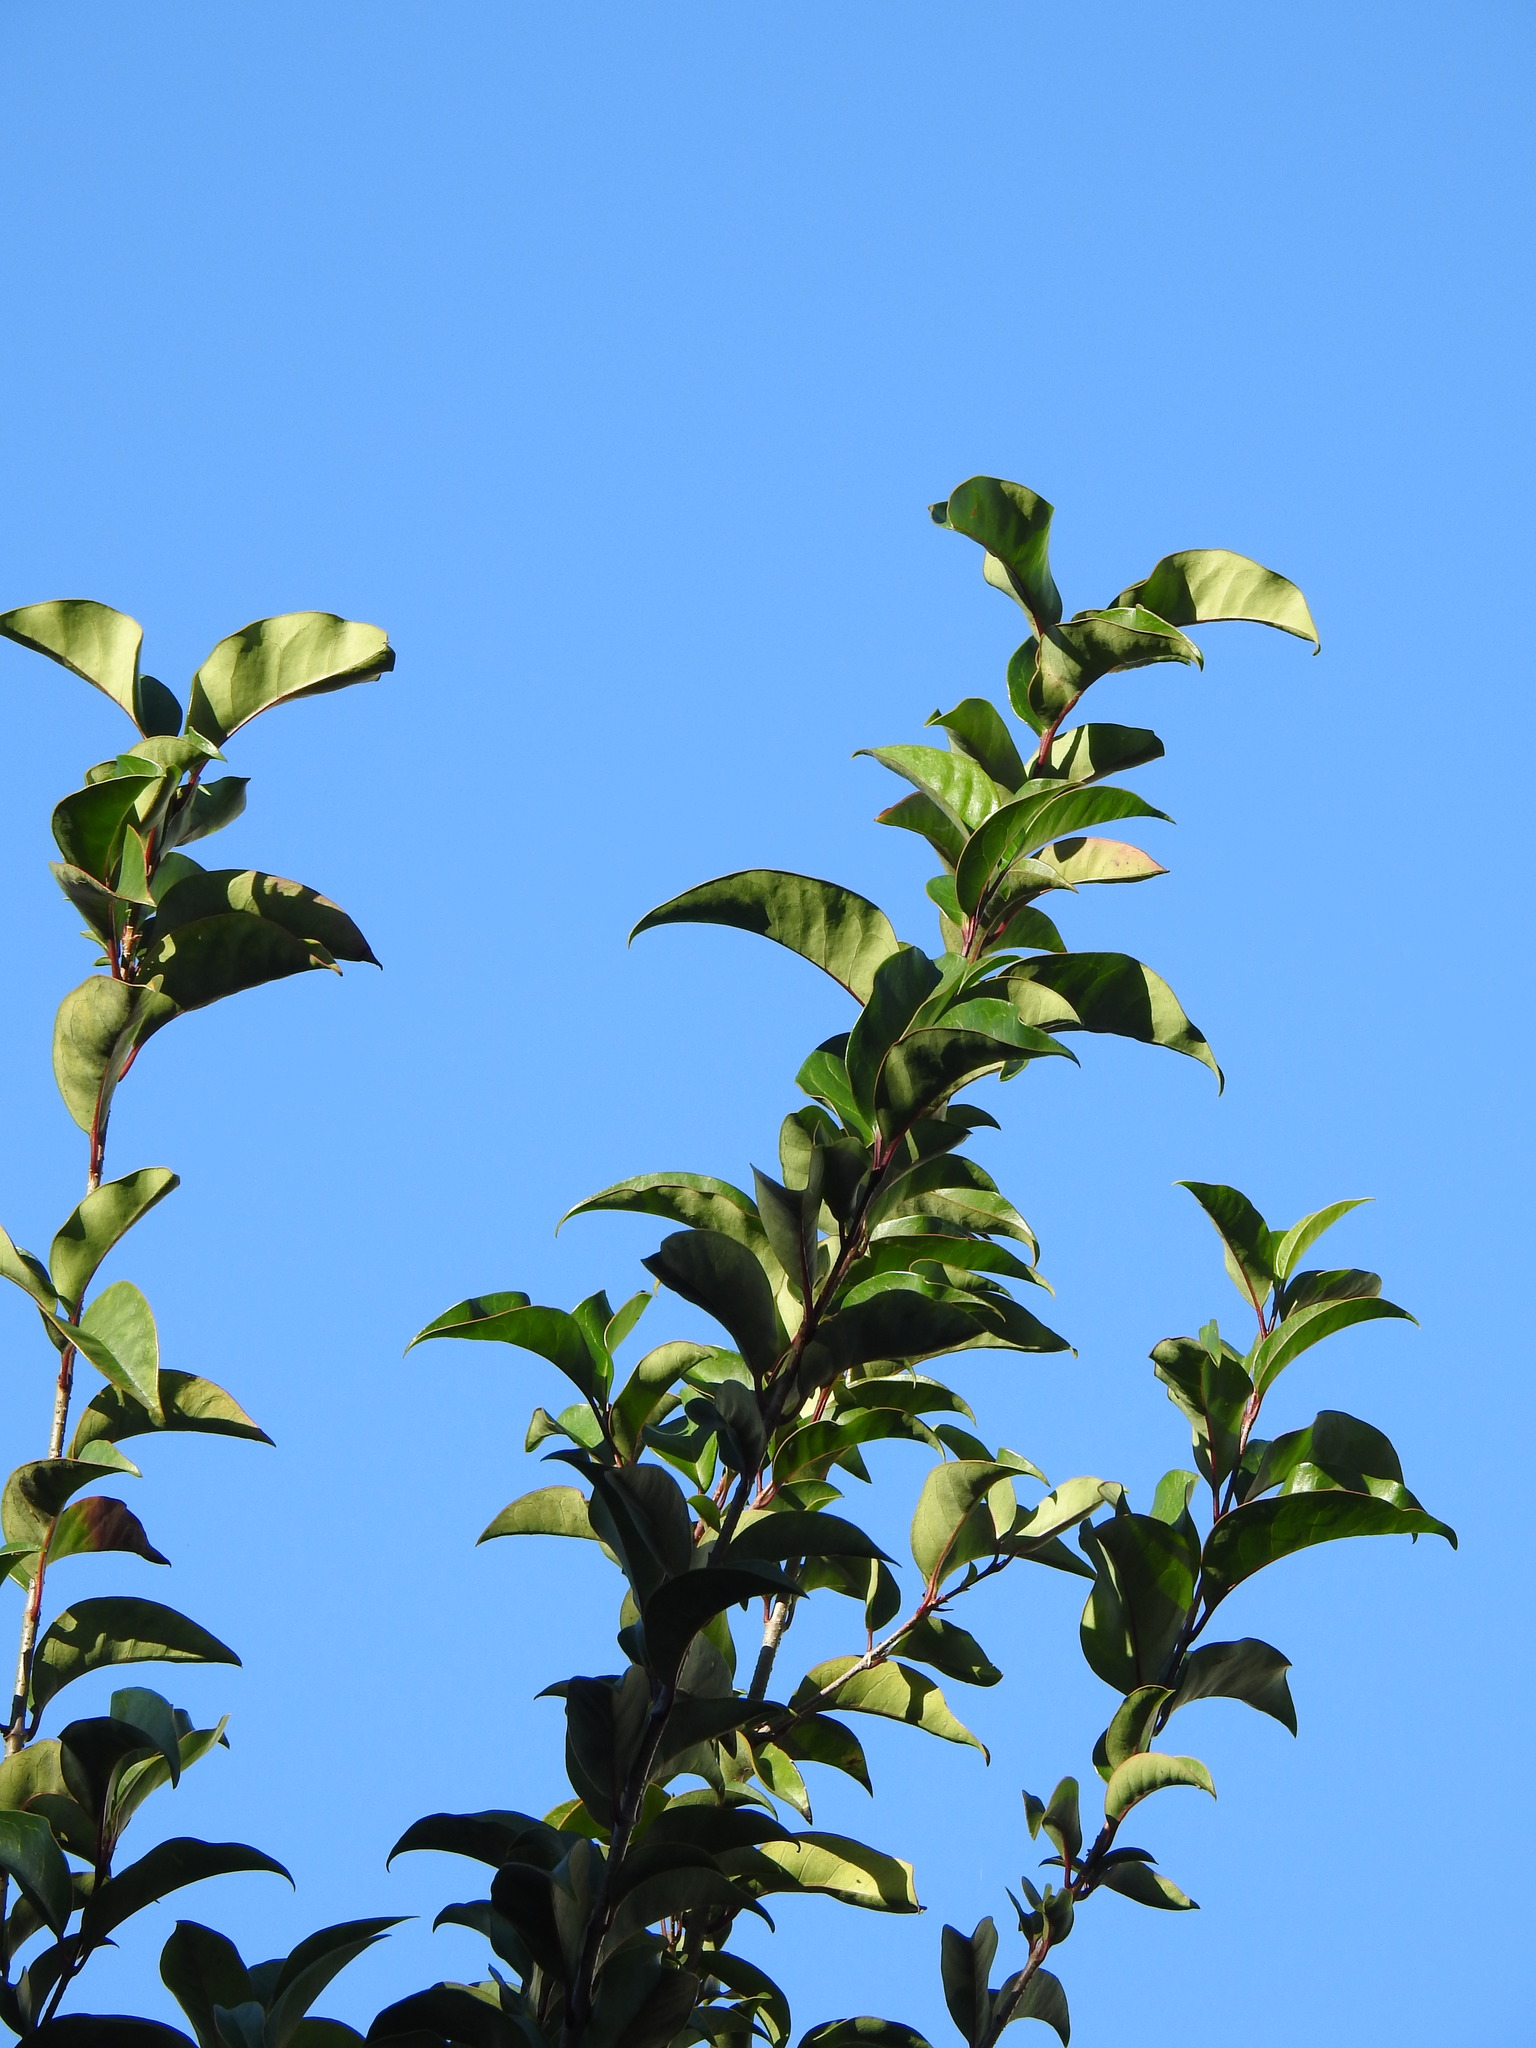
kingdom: Plantae
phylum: Tracheophyta
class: Magnoliopsida
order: Lamiales
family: Oleaceae
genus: Ligustrum
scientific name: Ligustrum lucidum
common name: Glossy privet
